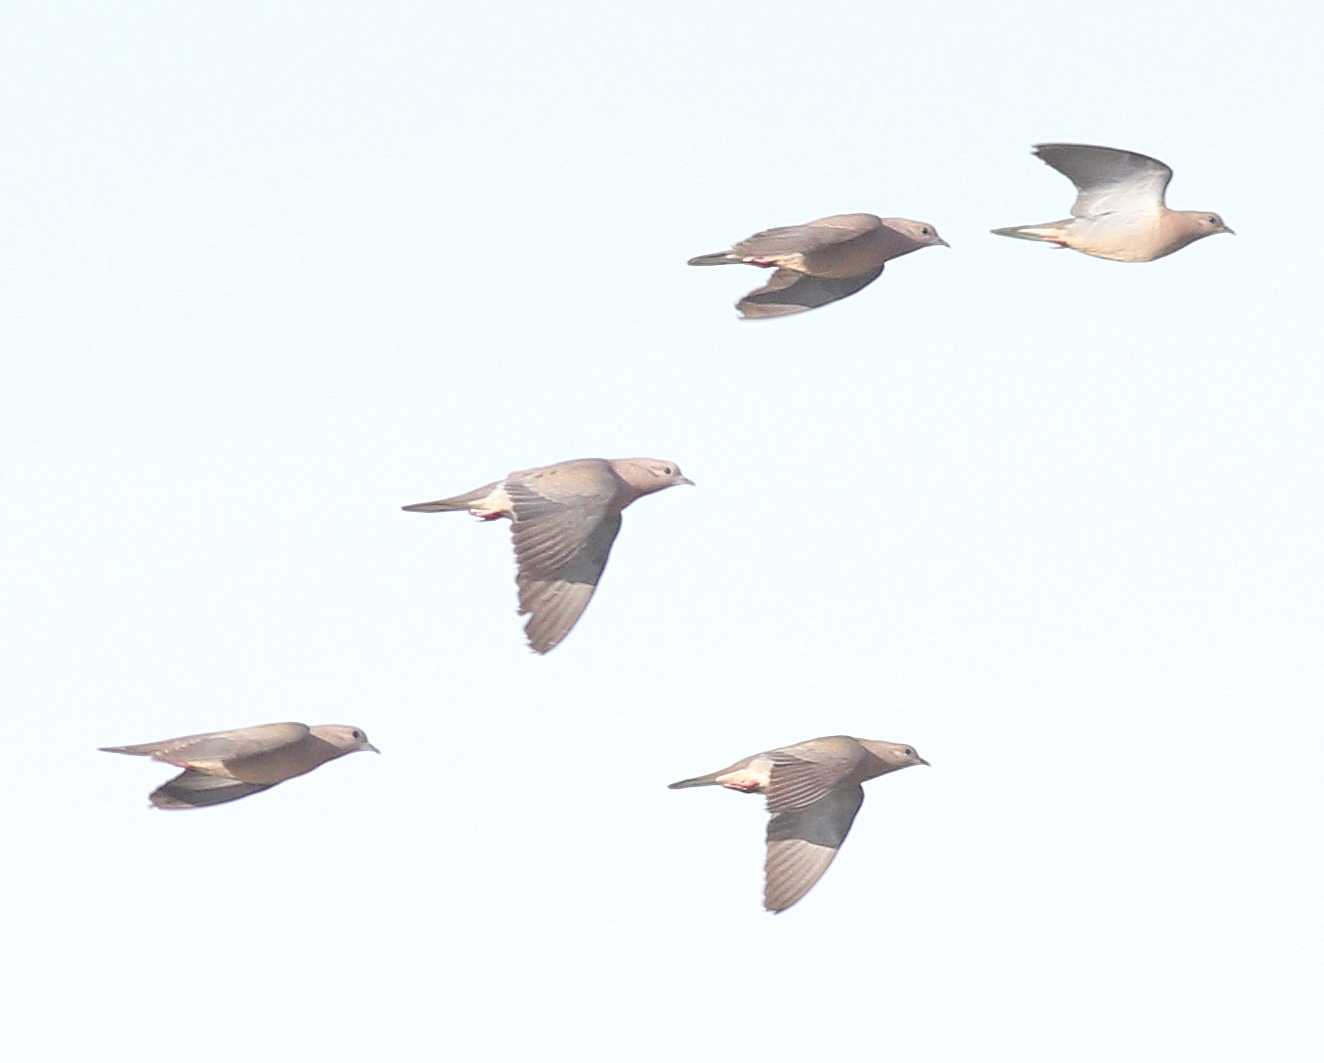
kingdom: Animalia
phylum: Chordata
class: Aves
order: Columbiformes
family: Columbidae
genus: Zenaida
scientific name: Zenaida auriculata
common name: Eared dove
